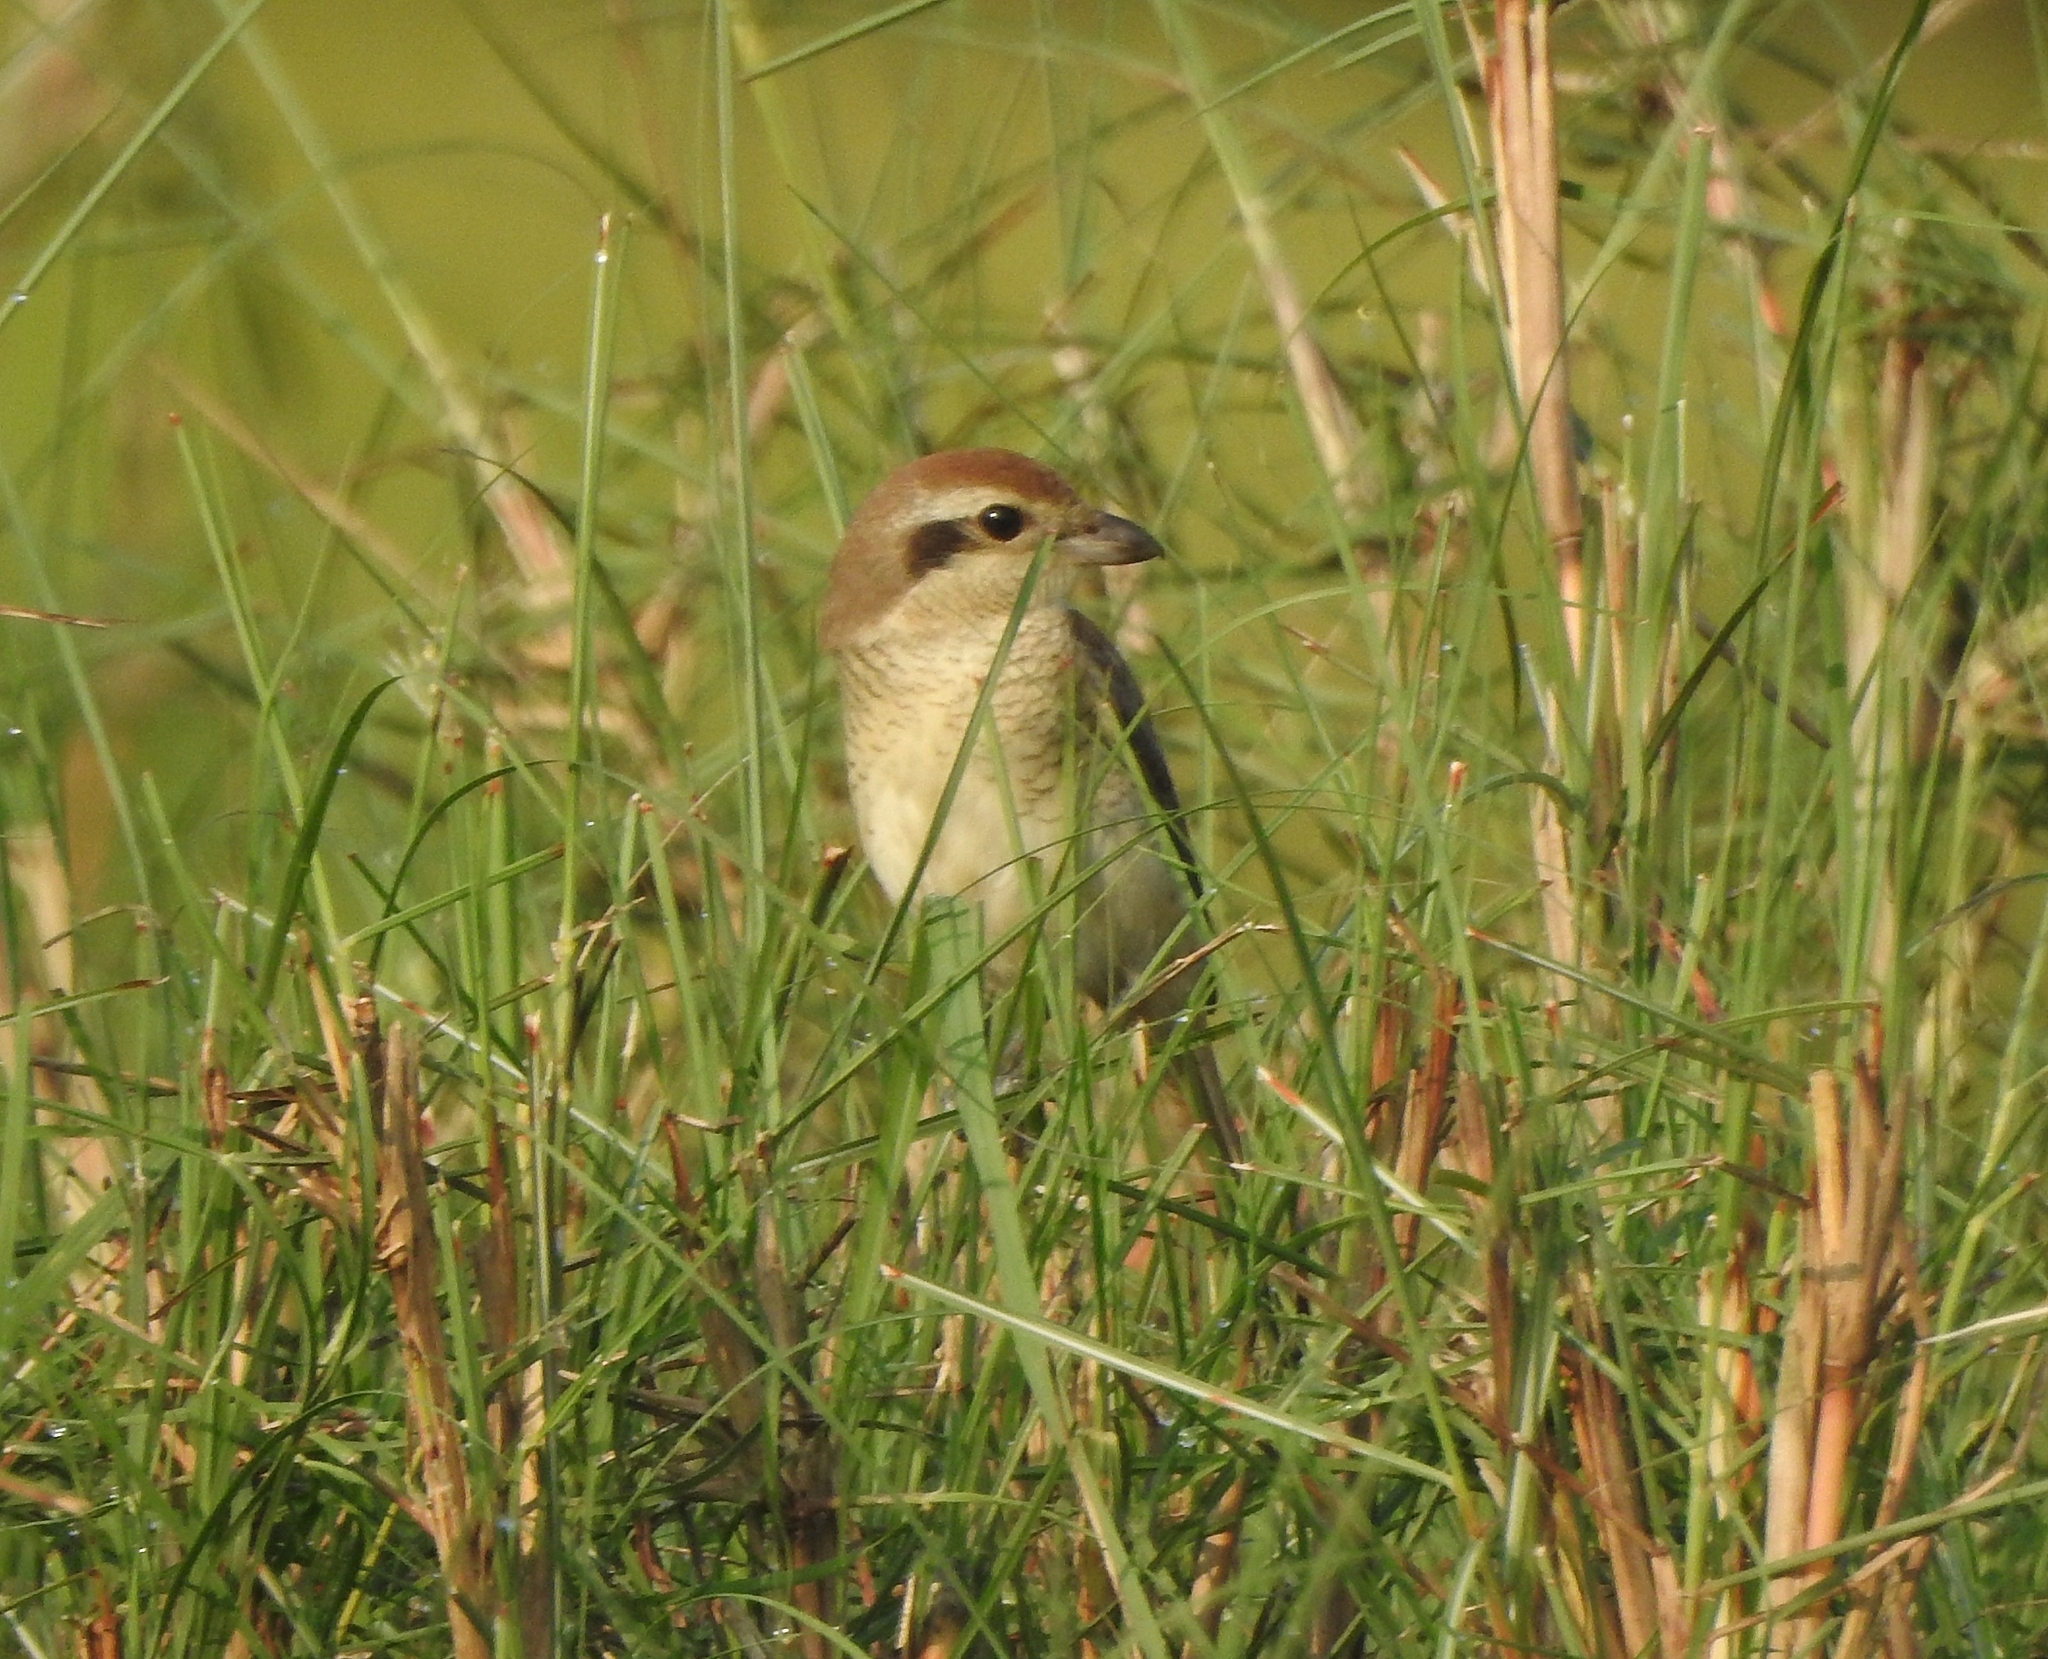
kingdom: Animalia
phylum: Chordata
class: Aves
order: Passeriformes
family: Laniidae
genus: Lanius
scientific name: Lanius cristatus
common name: Brown shrike
